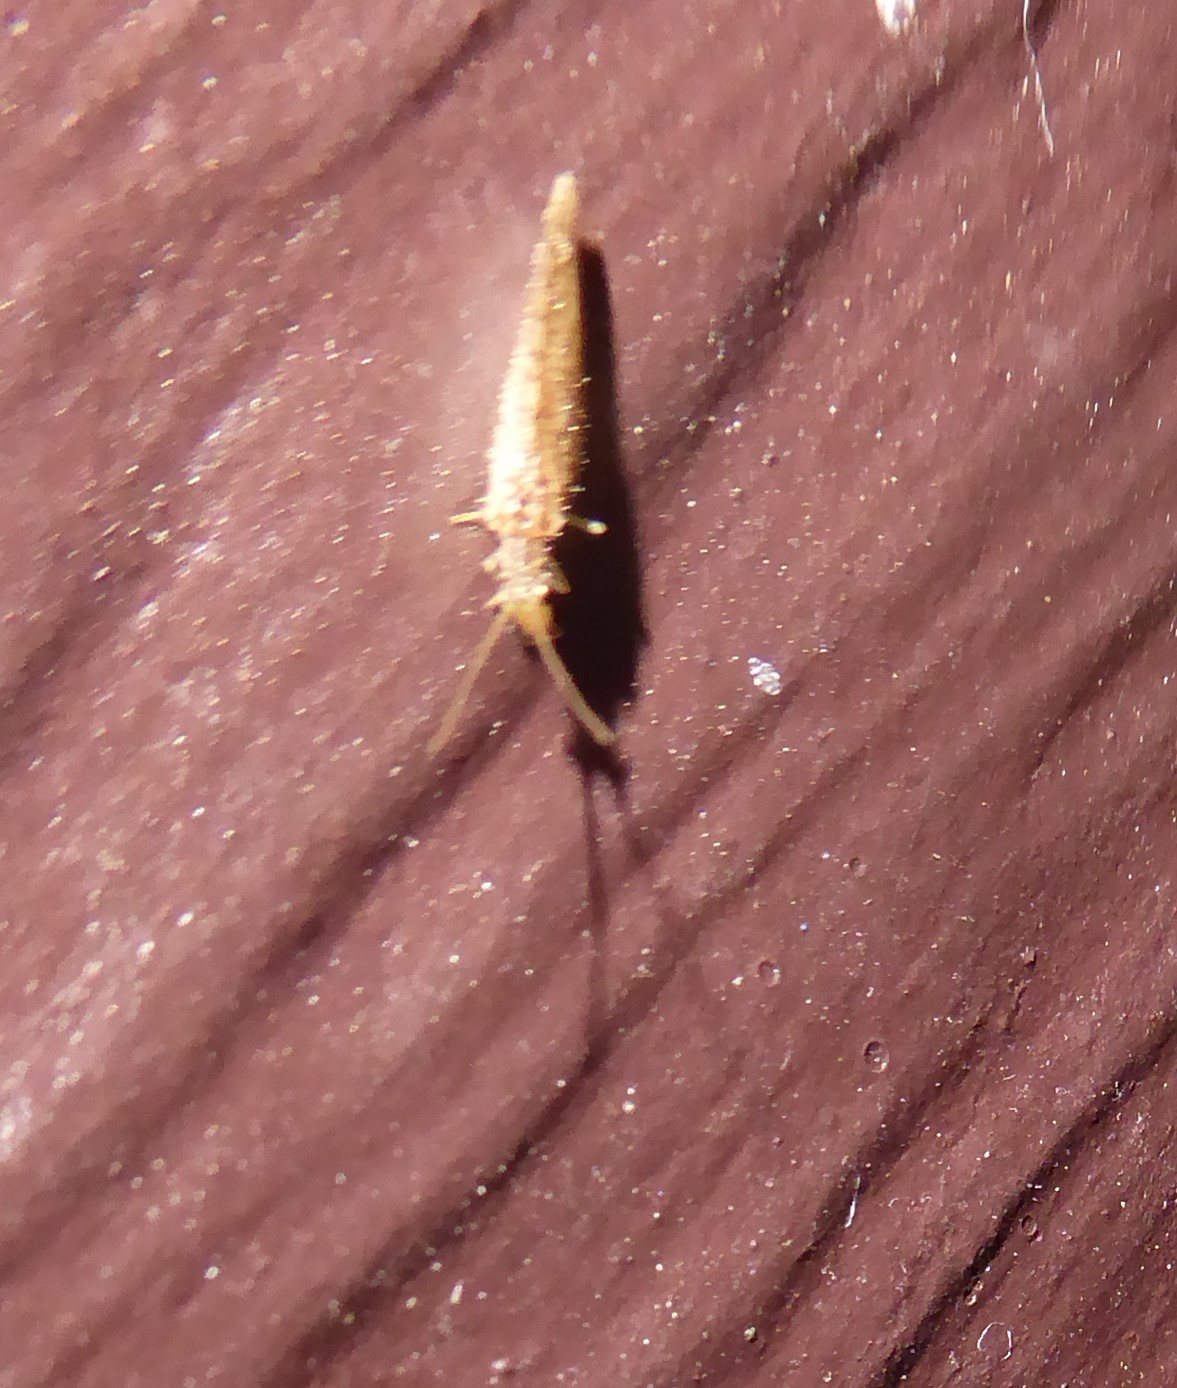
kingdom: Animalia
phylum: Arthropoda
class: Insecta
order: Neuroptera
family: Hemerobiidae
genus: Micromus
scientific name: Micromus tasmaniae
